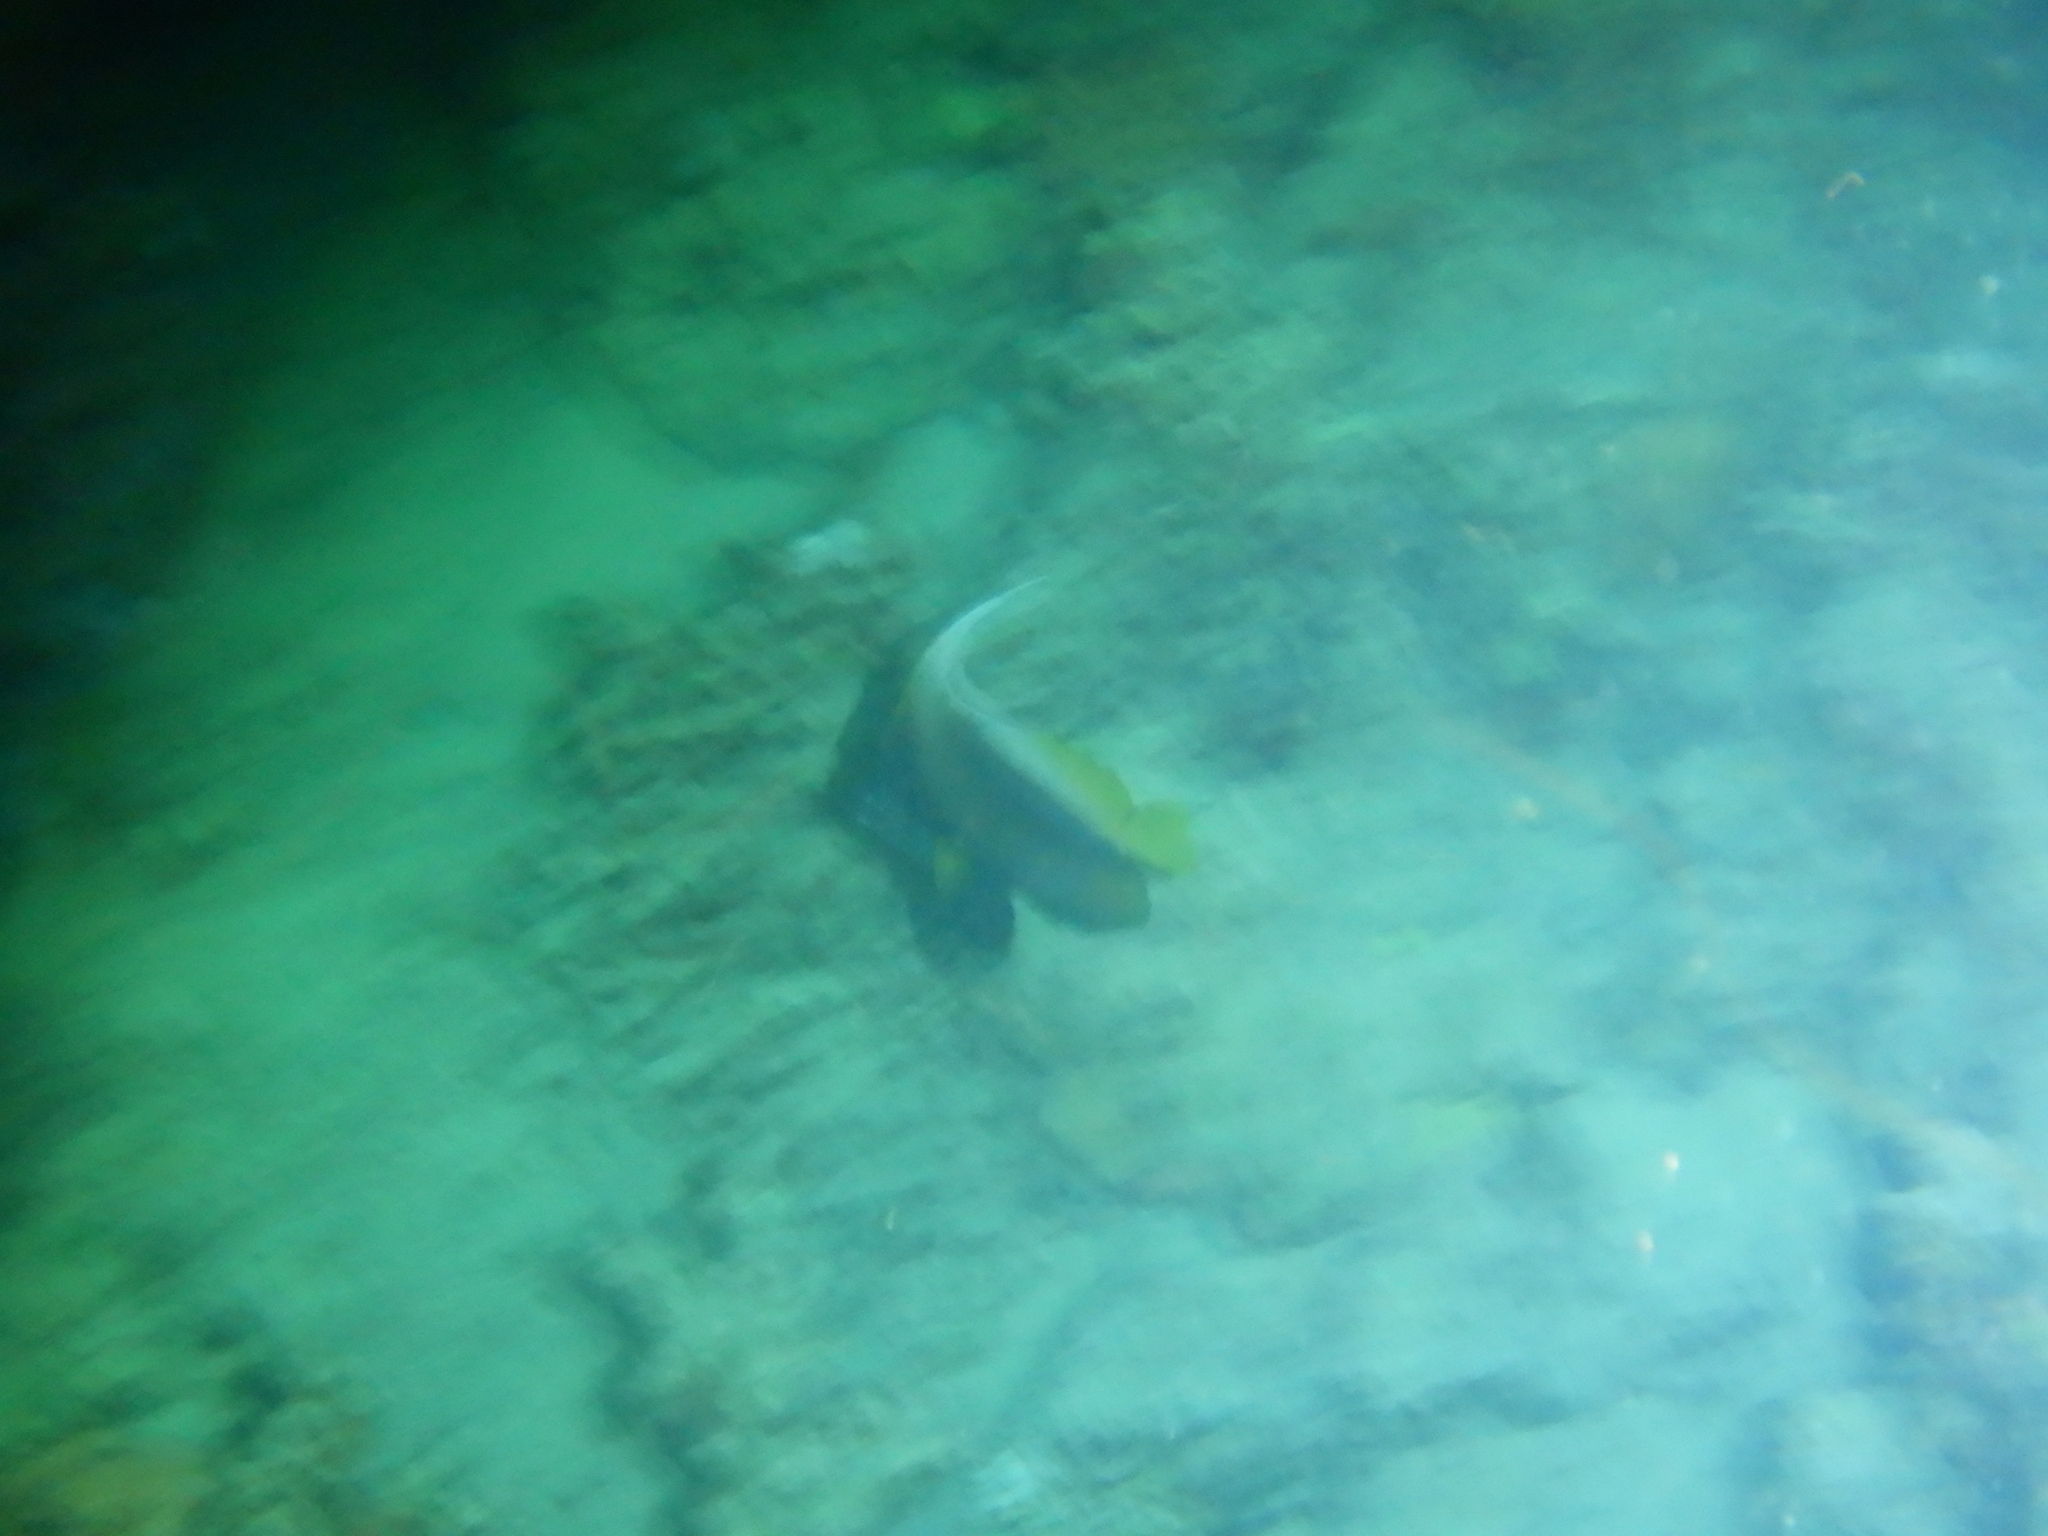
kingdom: Animalia
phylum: Chordata
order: Perciformes
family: Chaetodontidae
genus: Heniochus
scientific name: Heniochus intermedius
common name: Red sea bannerfish
